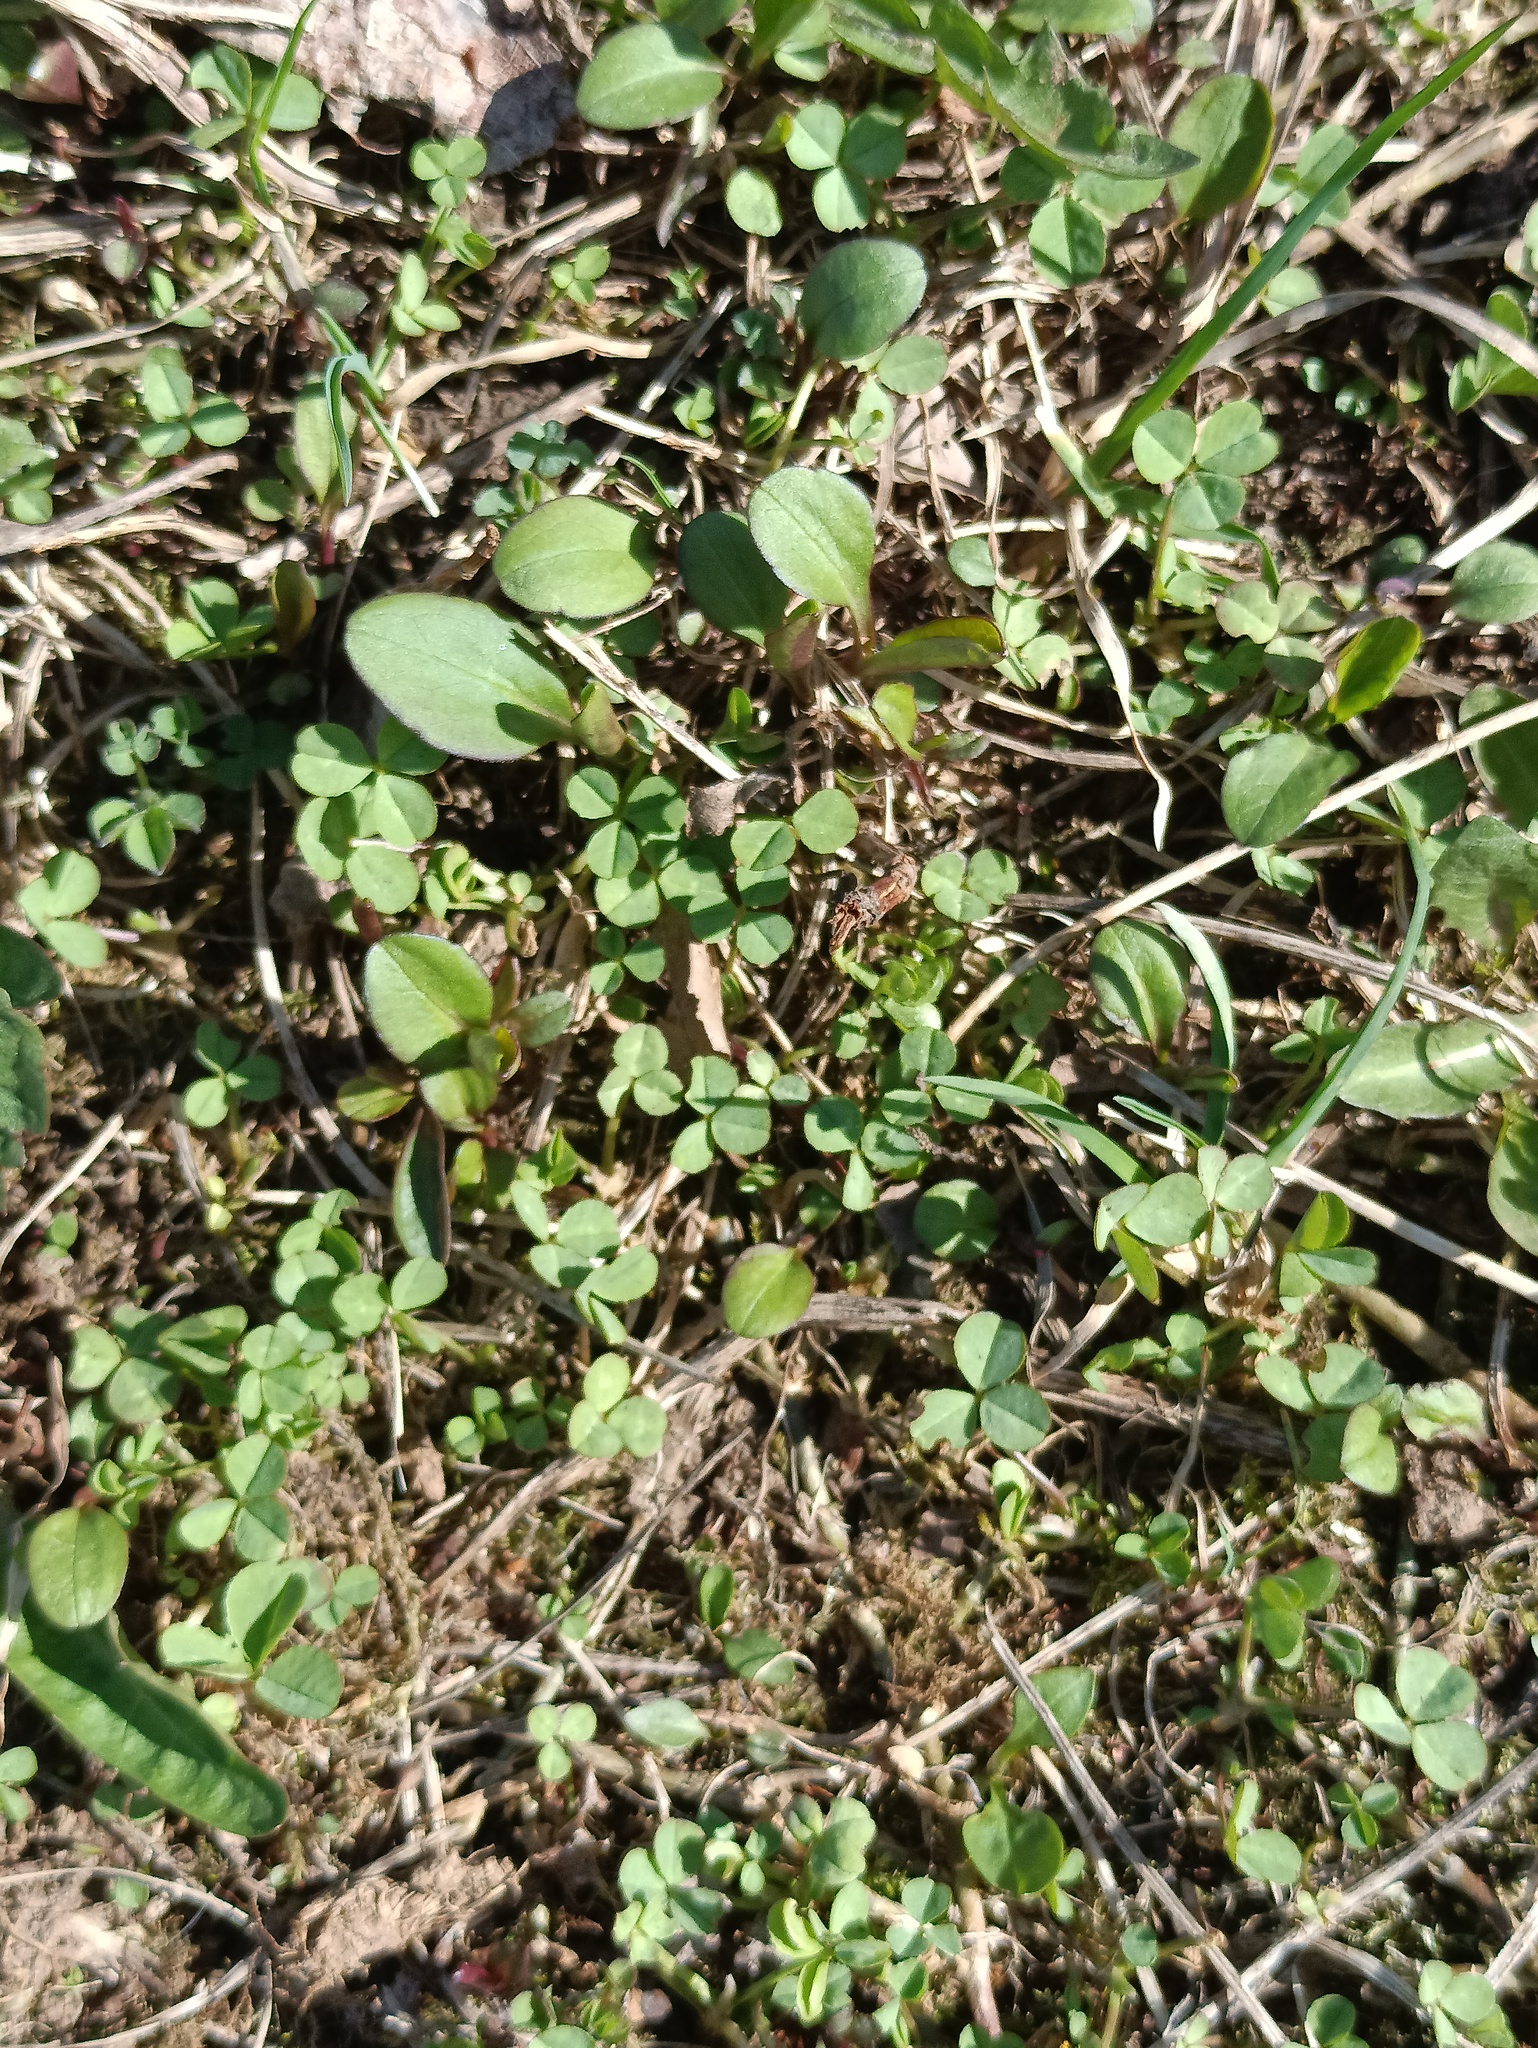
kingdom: Plantae
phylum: Tracheophyta
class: Magnoliopsida
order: Fabales
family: Fabaceae
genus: Trifolium
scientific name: Trifolium repens
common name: White clover
